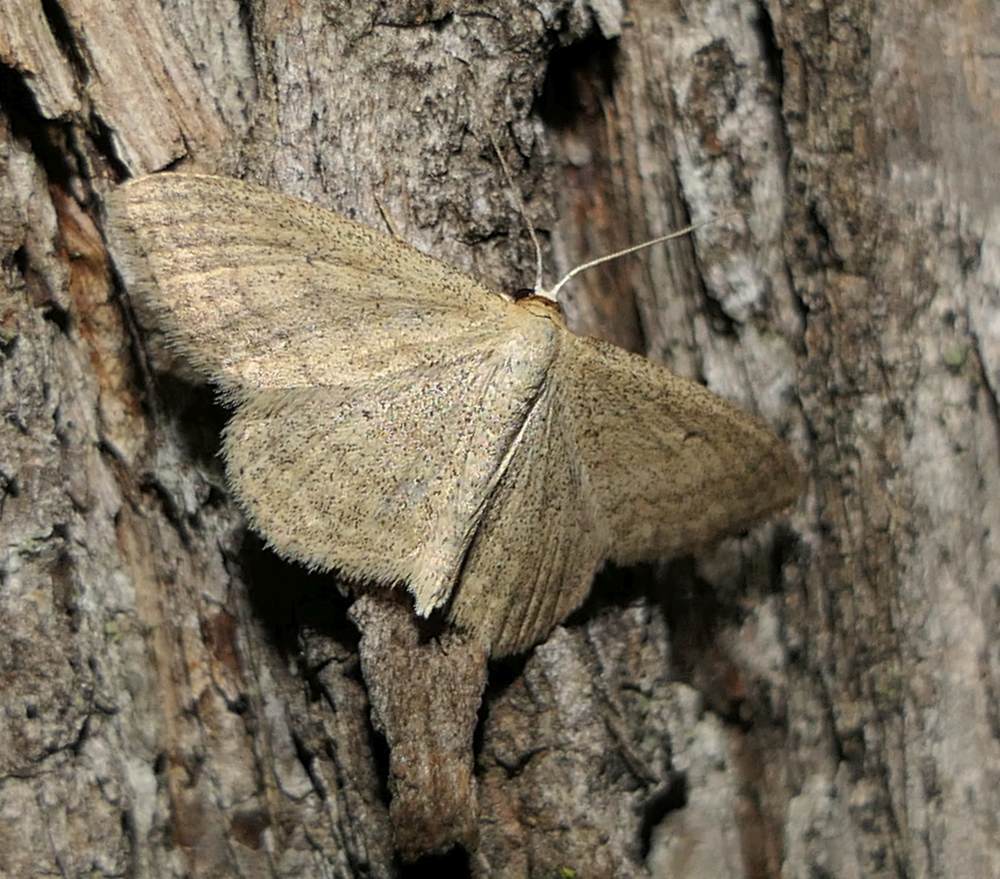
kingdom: Animalia
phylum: Arthropoda
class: Insecta
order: Lepidoptera
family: Geometridae
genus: Scopula
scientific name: Scopula inductata
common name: Soft-lined wave
